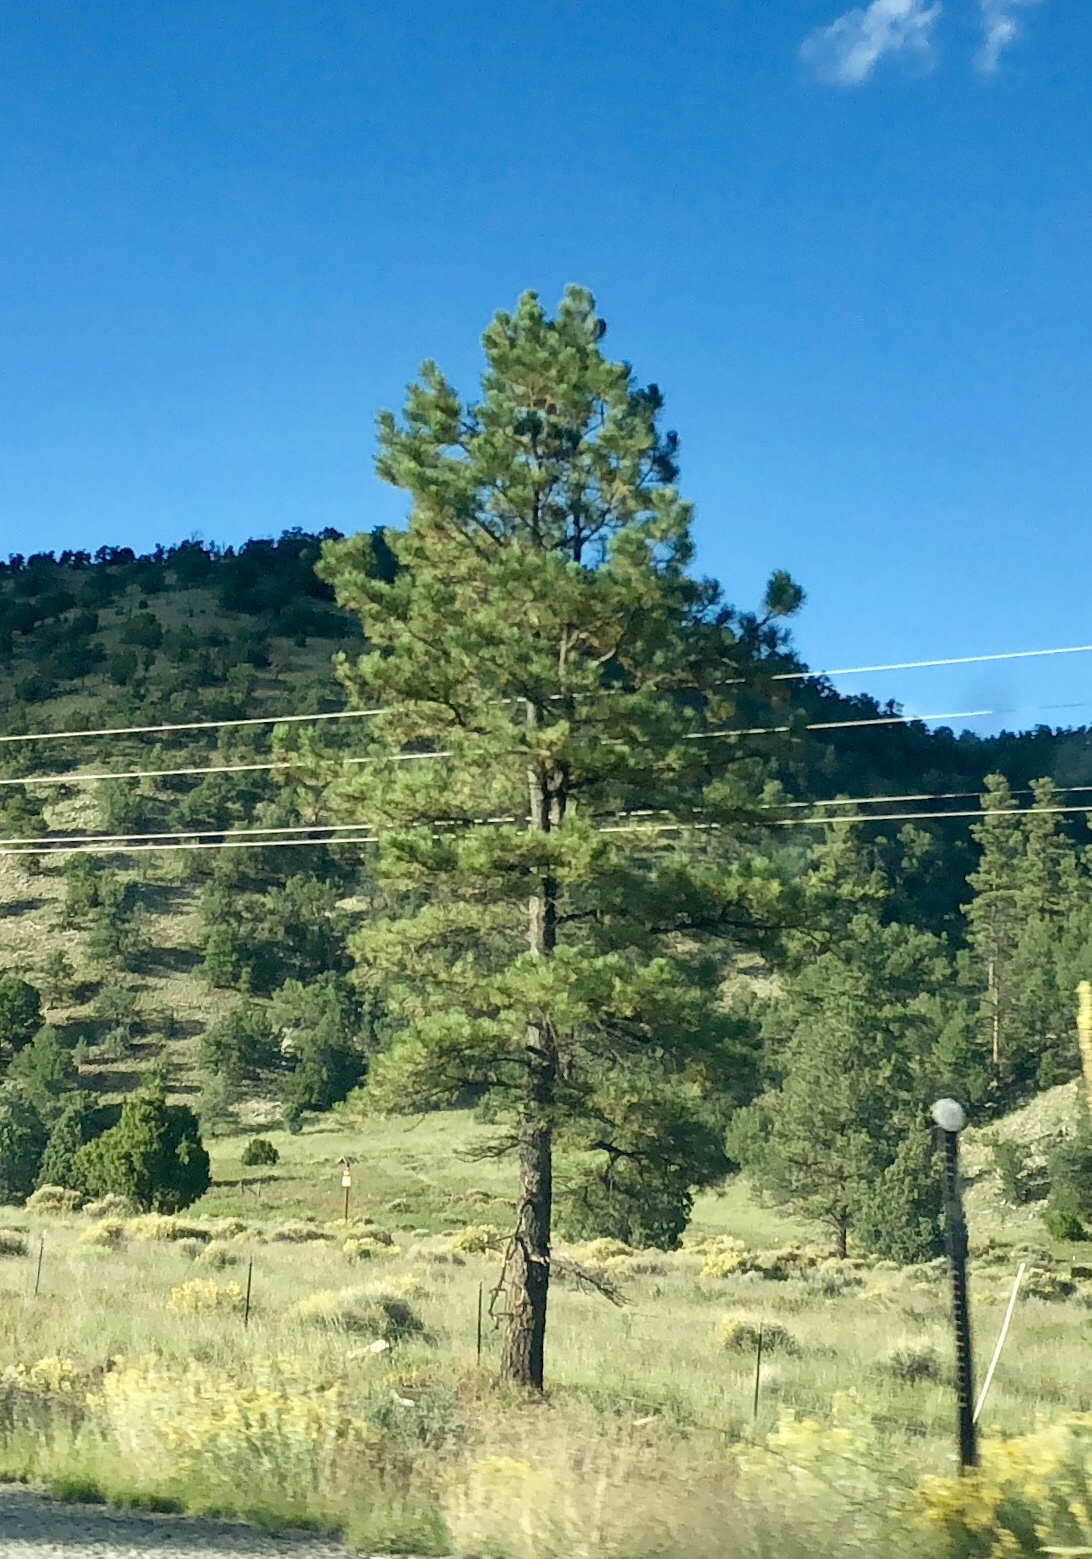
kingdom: Plantae
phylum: Tracheophyta
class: Pinopsida
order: Pinales
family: Pinaceae
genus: Pinus
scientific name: Pinus ponderosa
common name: Western yellow-pine
